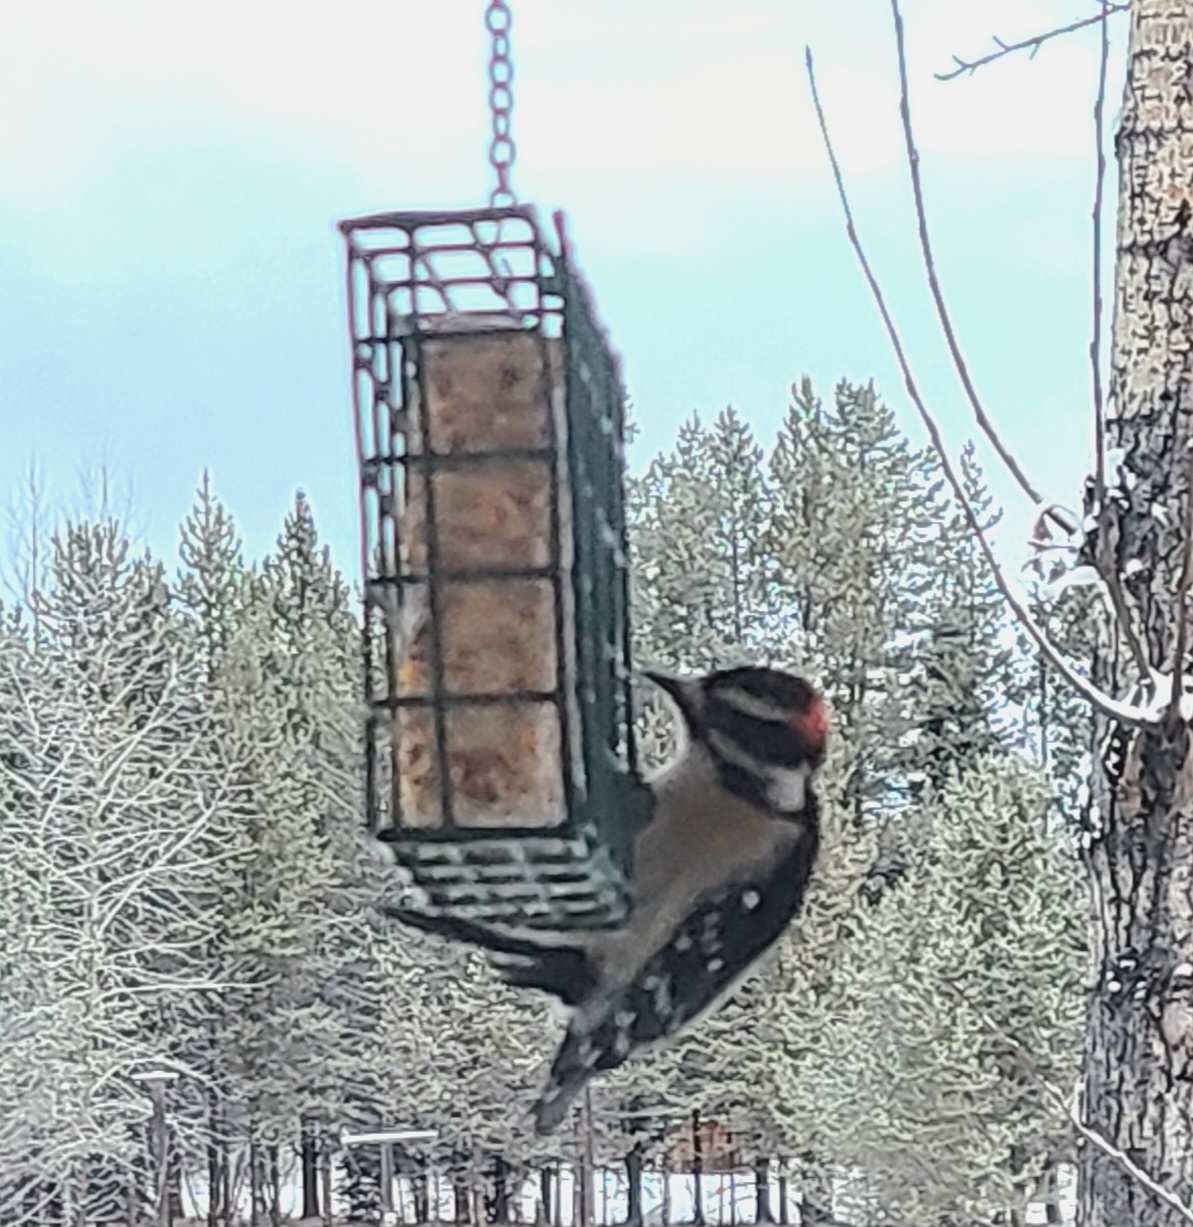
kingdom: Animalia
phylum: Chordata
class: Aves
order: Piciformes
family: Picidae
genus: Dryobates
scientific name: Dryobates pubescens
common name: Downy woodpecker
